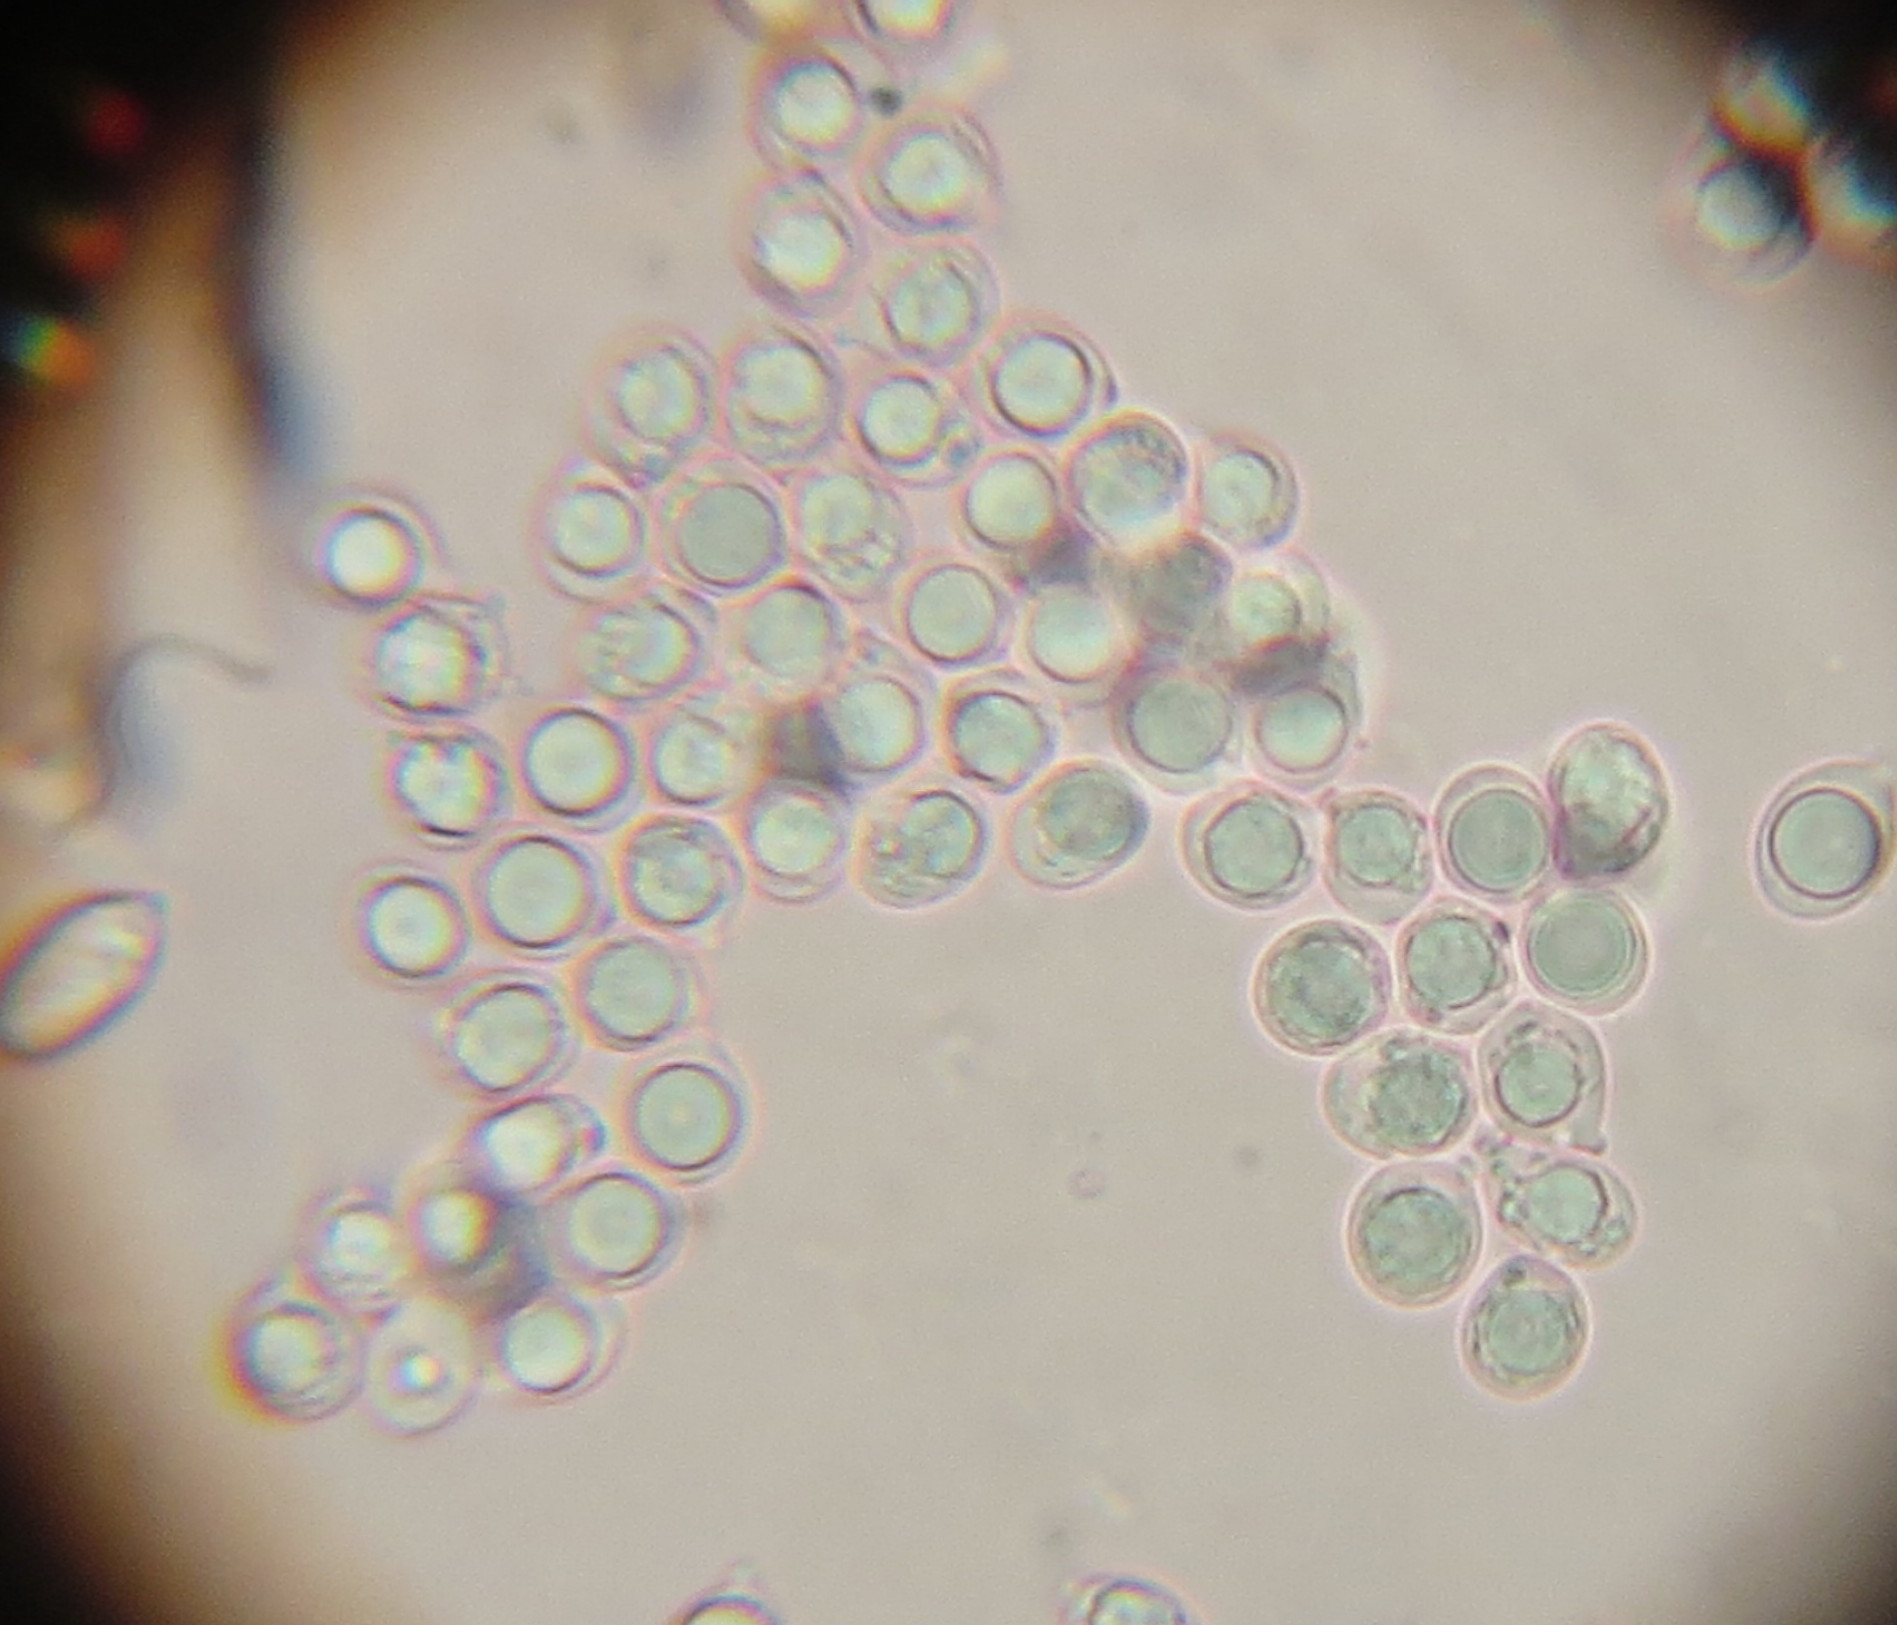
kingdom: Fungi
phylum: Basidiomycota
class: Agaricomycetes
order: Agaricales
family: Amanitaceae
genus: Amanita
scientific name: Amanita nehuta
